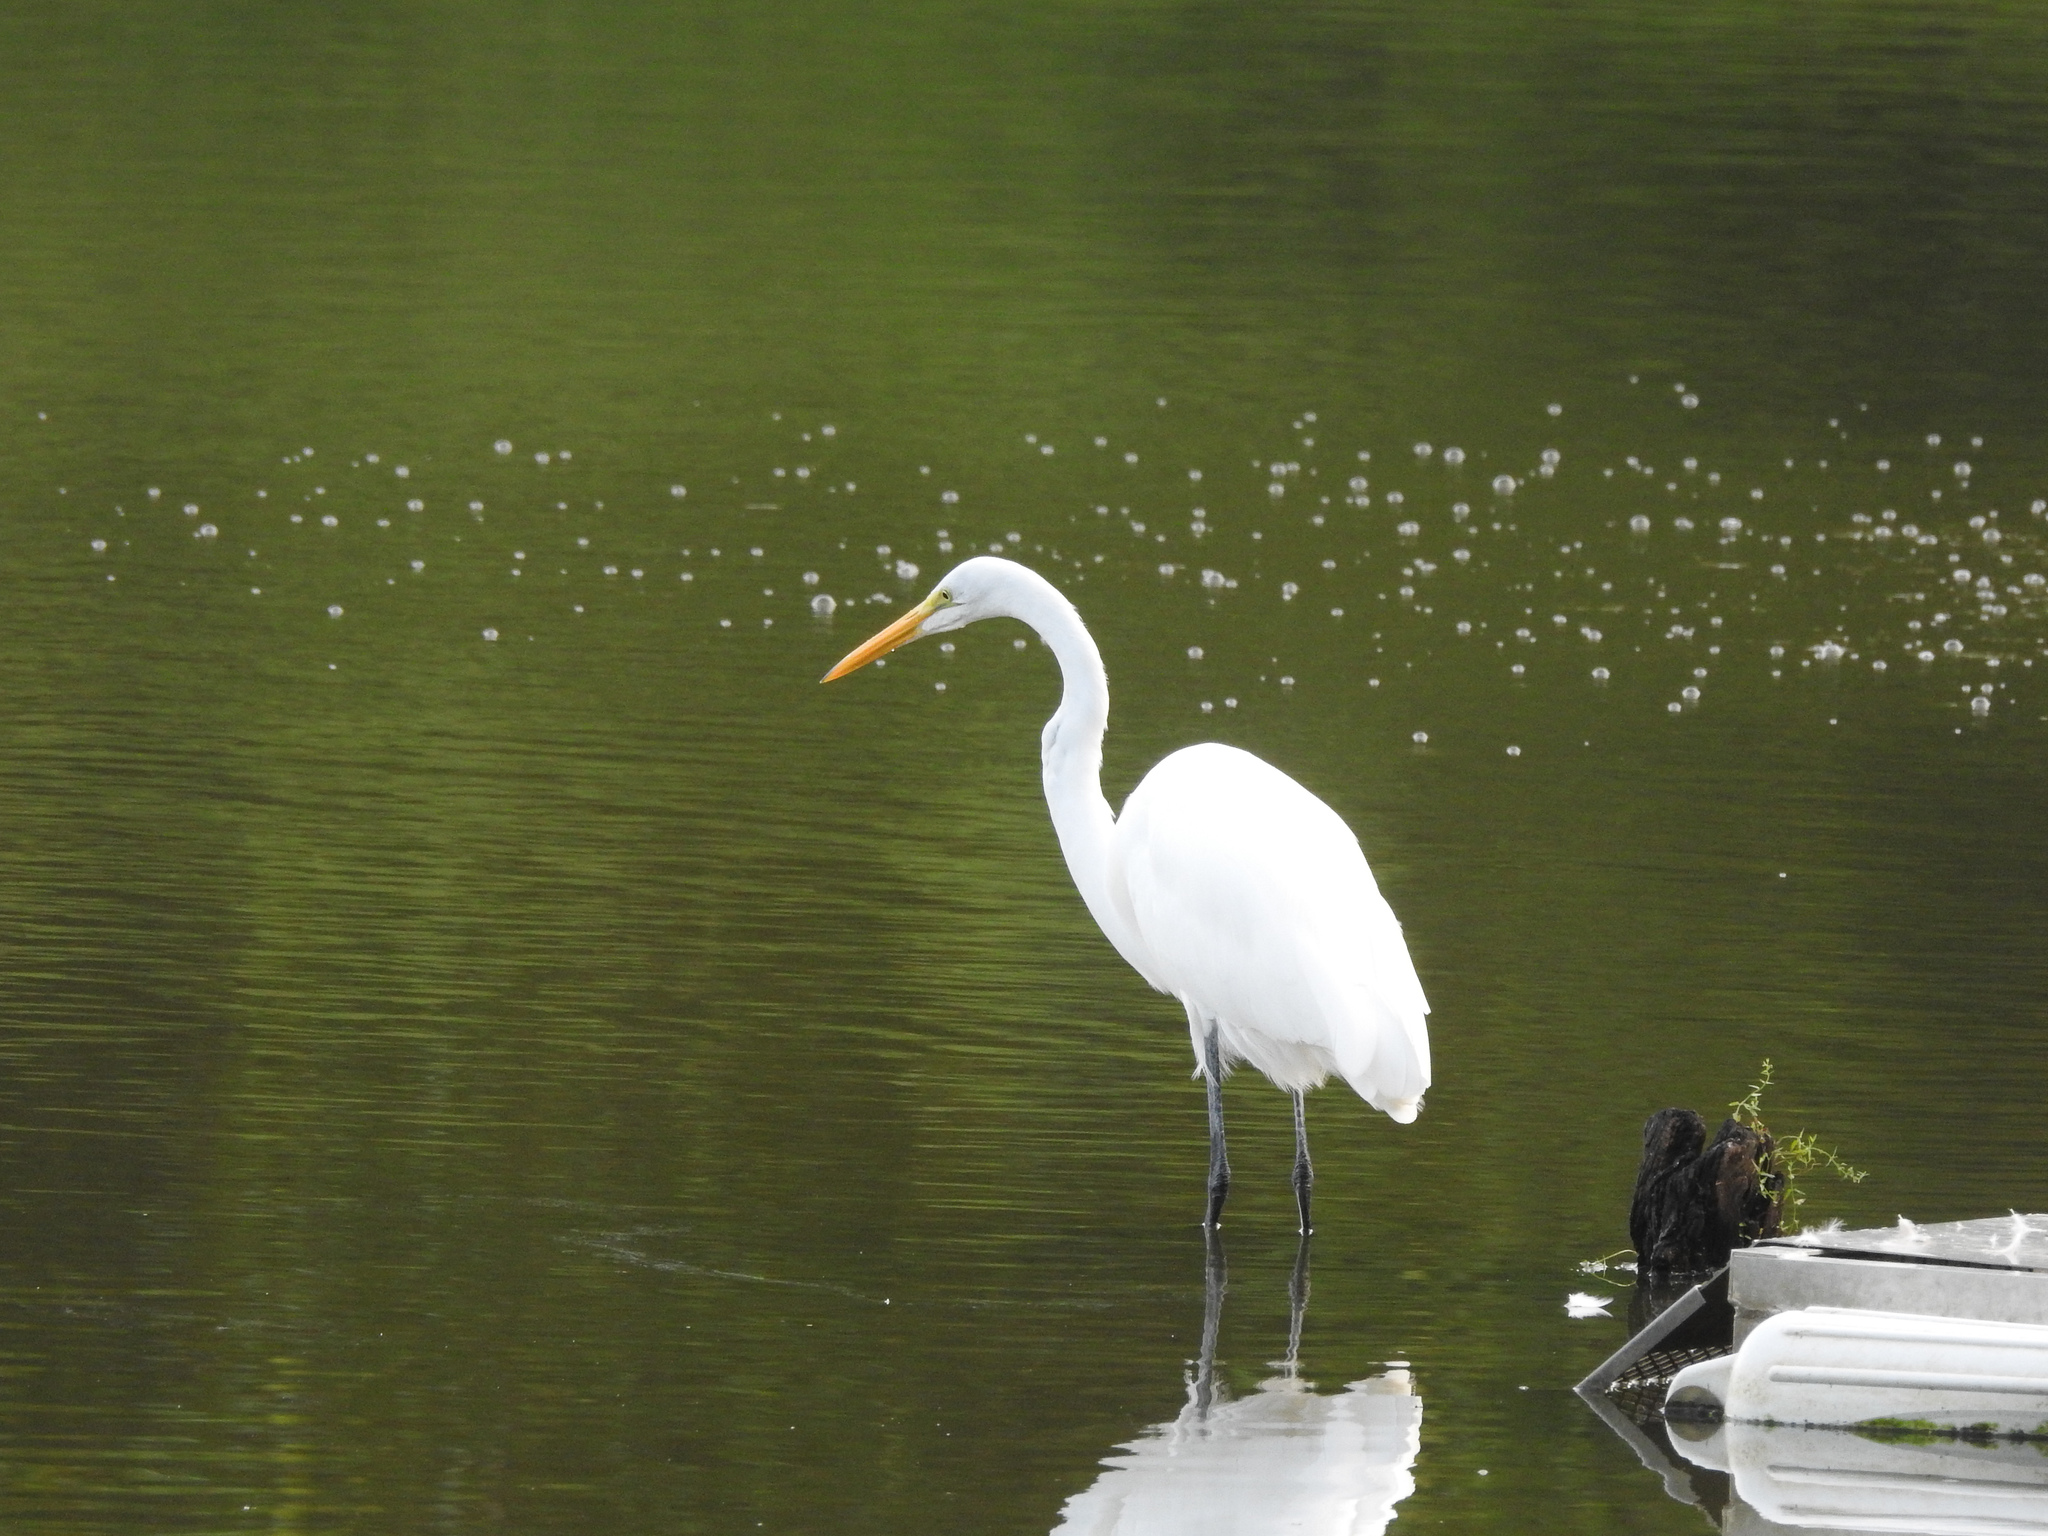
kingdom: Animalia
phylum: Chordata
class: Aves
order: Pelecaniformes
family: Ardeidae
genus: Ardea
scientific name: Ardea alba
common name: Great egret
